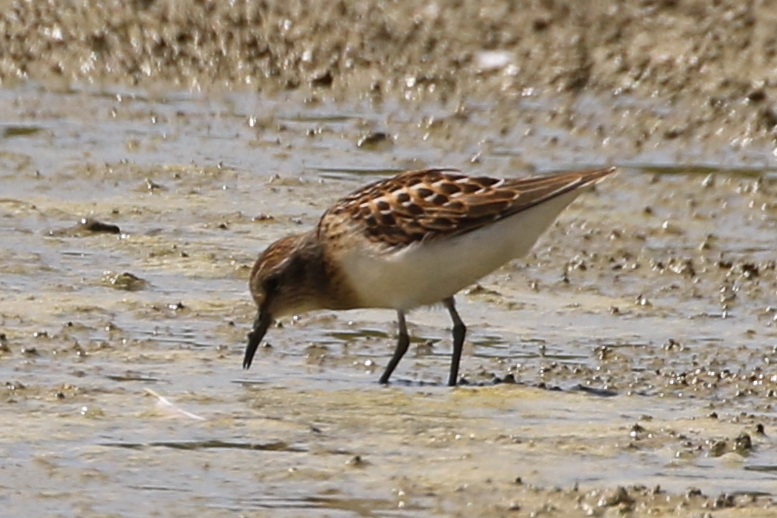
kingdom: Animalia
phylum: Chordata
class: Aves
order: Charadriiformes
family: Scolopacidae
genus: Calidris
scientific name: Calidris minutilla
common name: Least sandpiper
